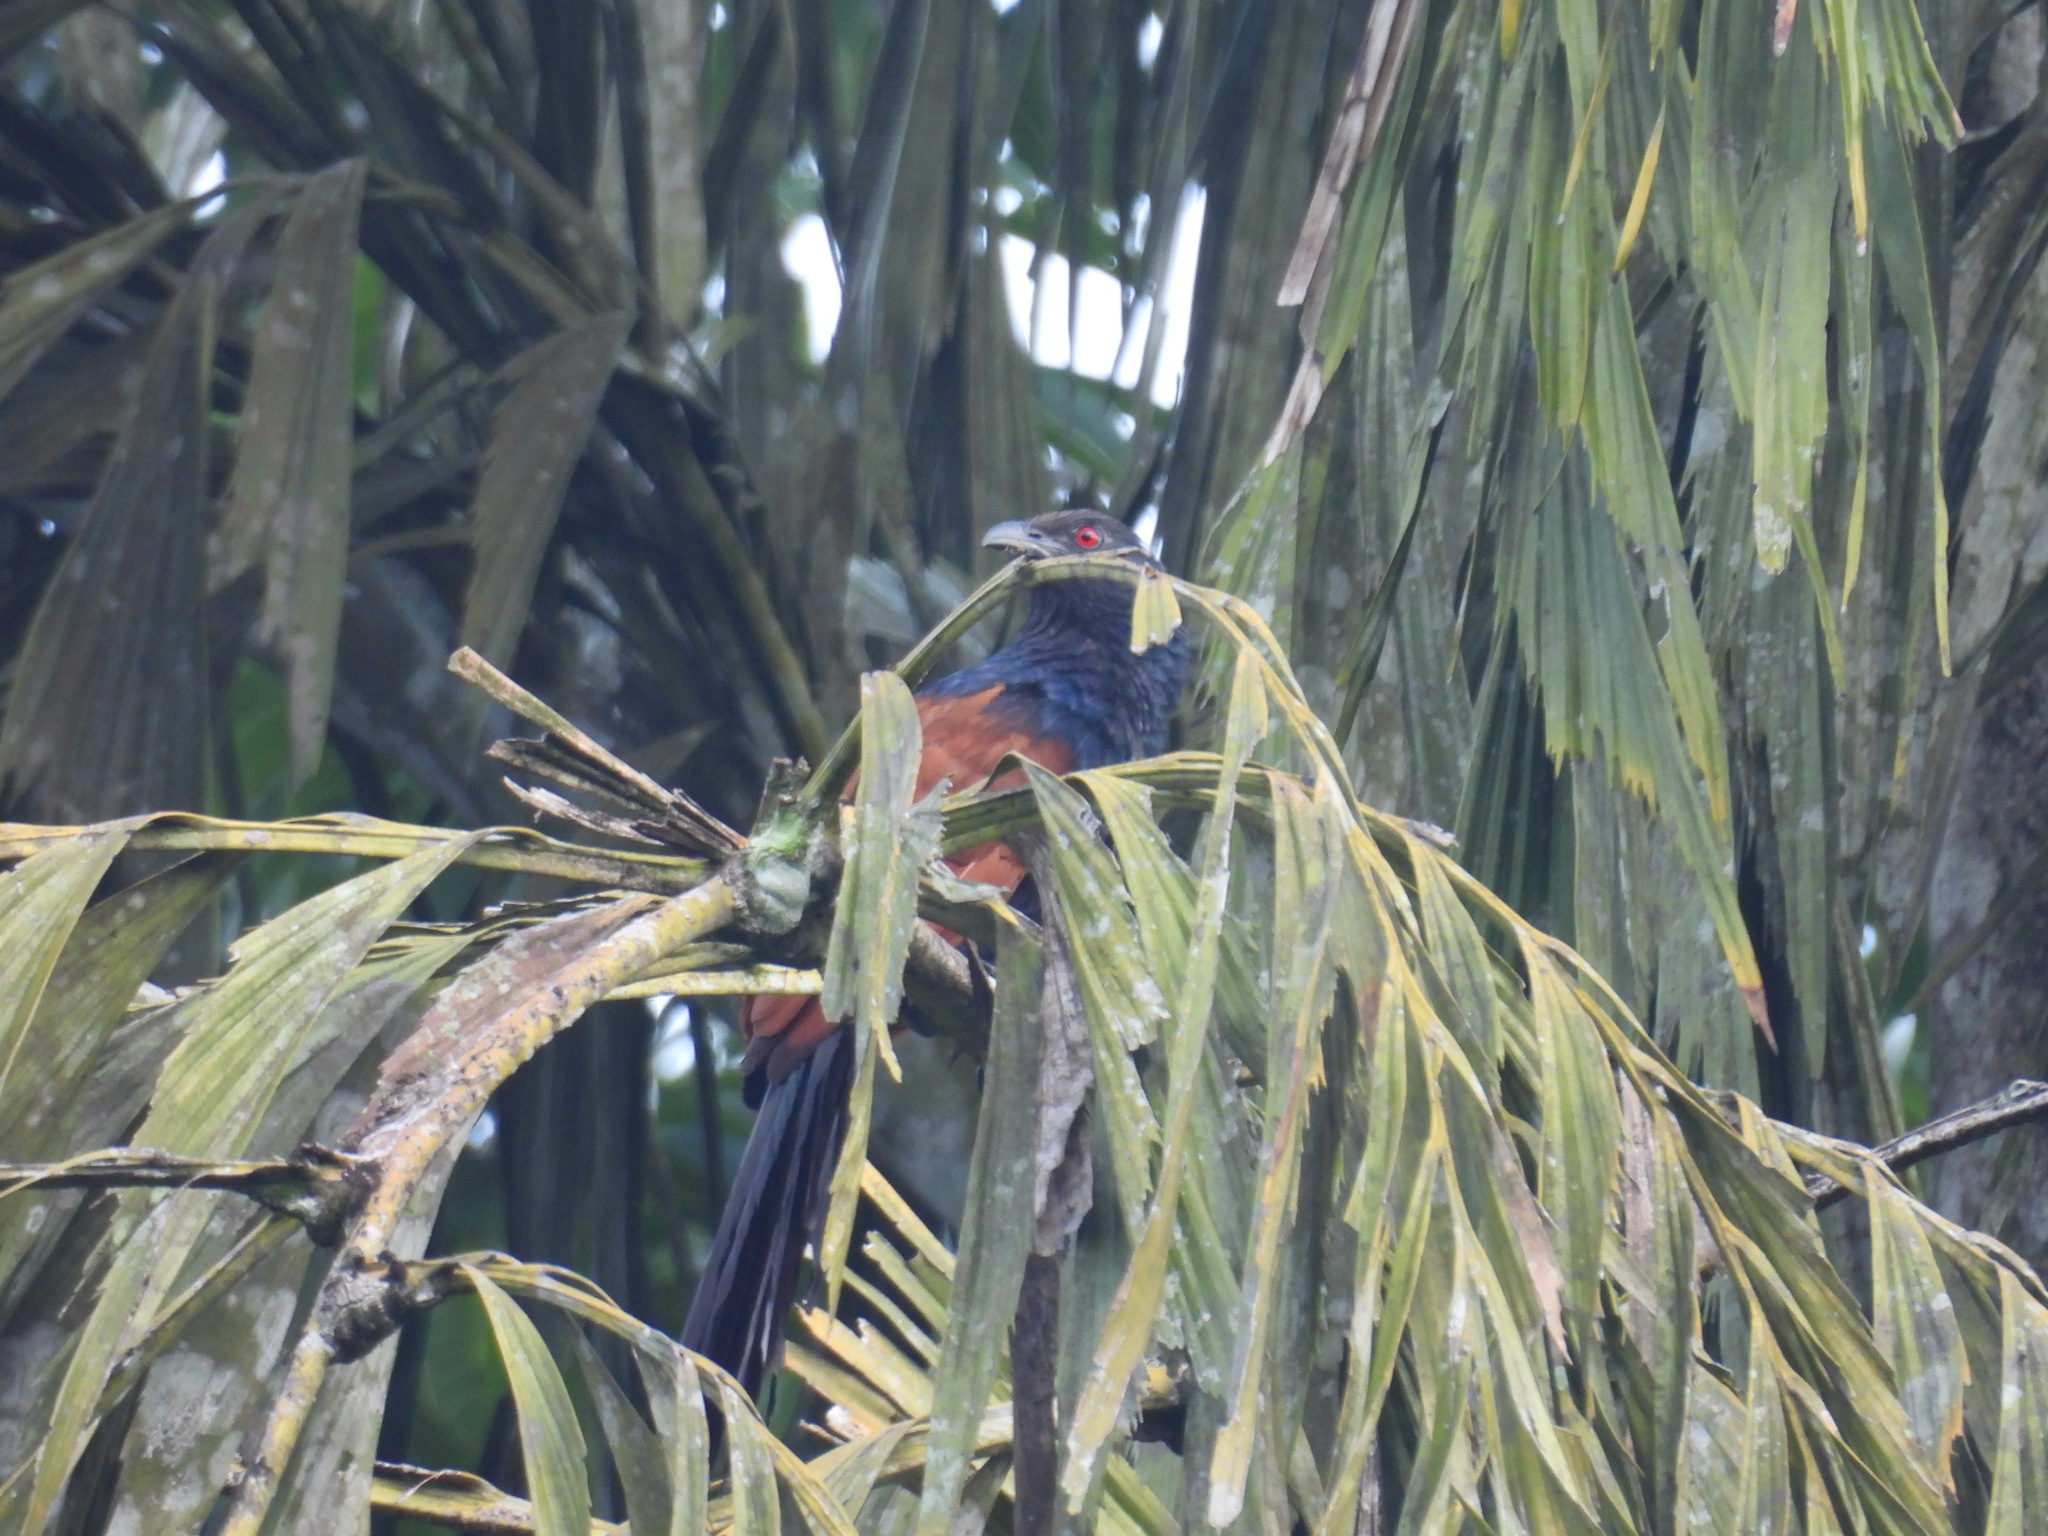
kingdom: Animalia
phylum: Chordata
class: Aves
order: Cuculiformes
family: Cuculidae
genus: Centropus
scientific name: Centropus sinensis
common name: Greater coucal
